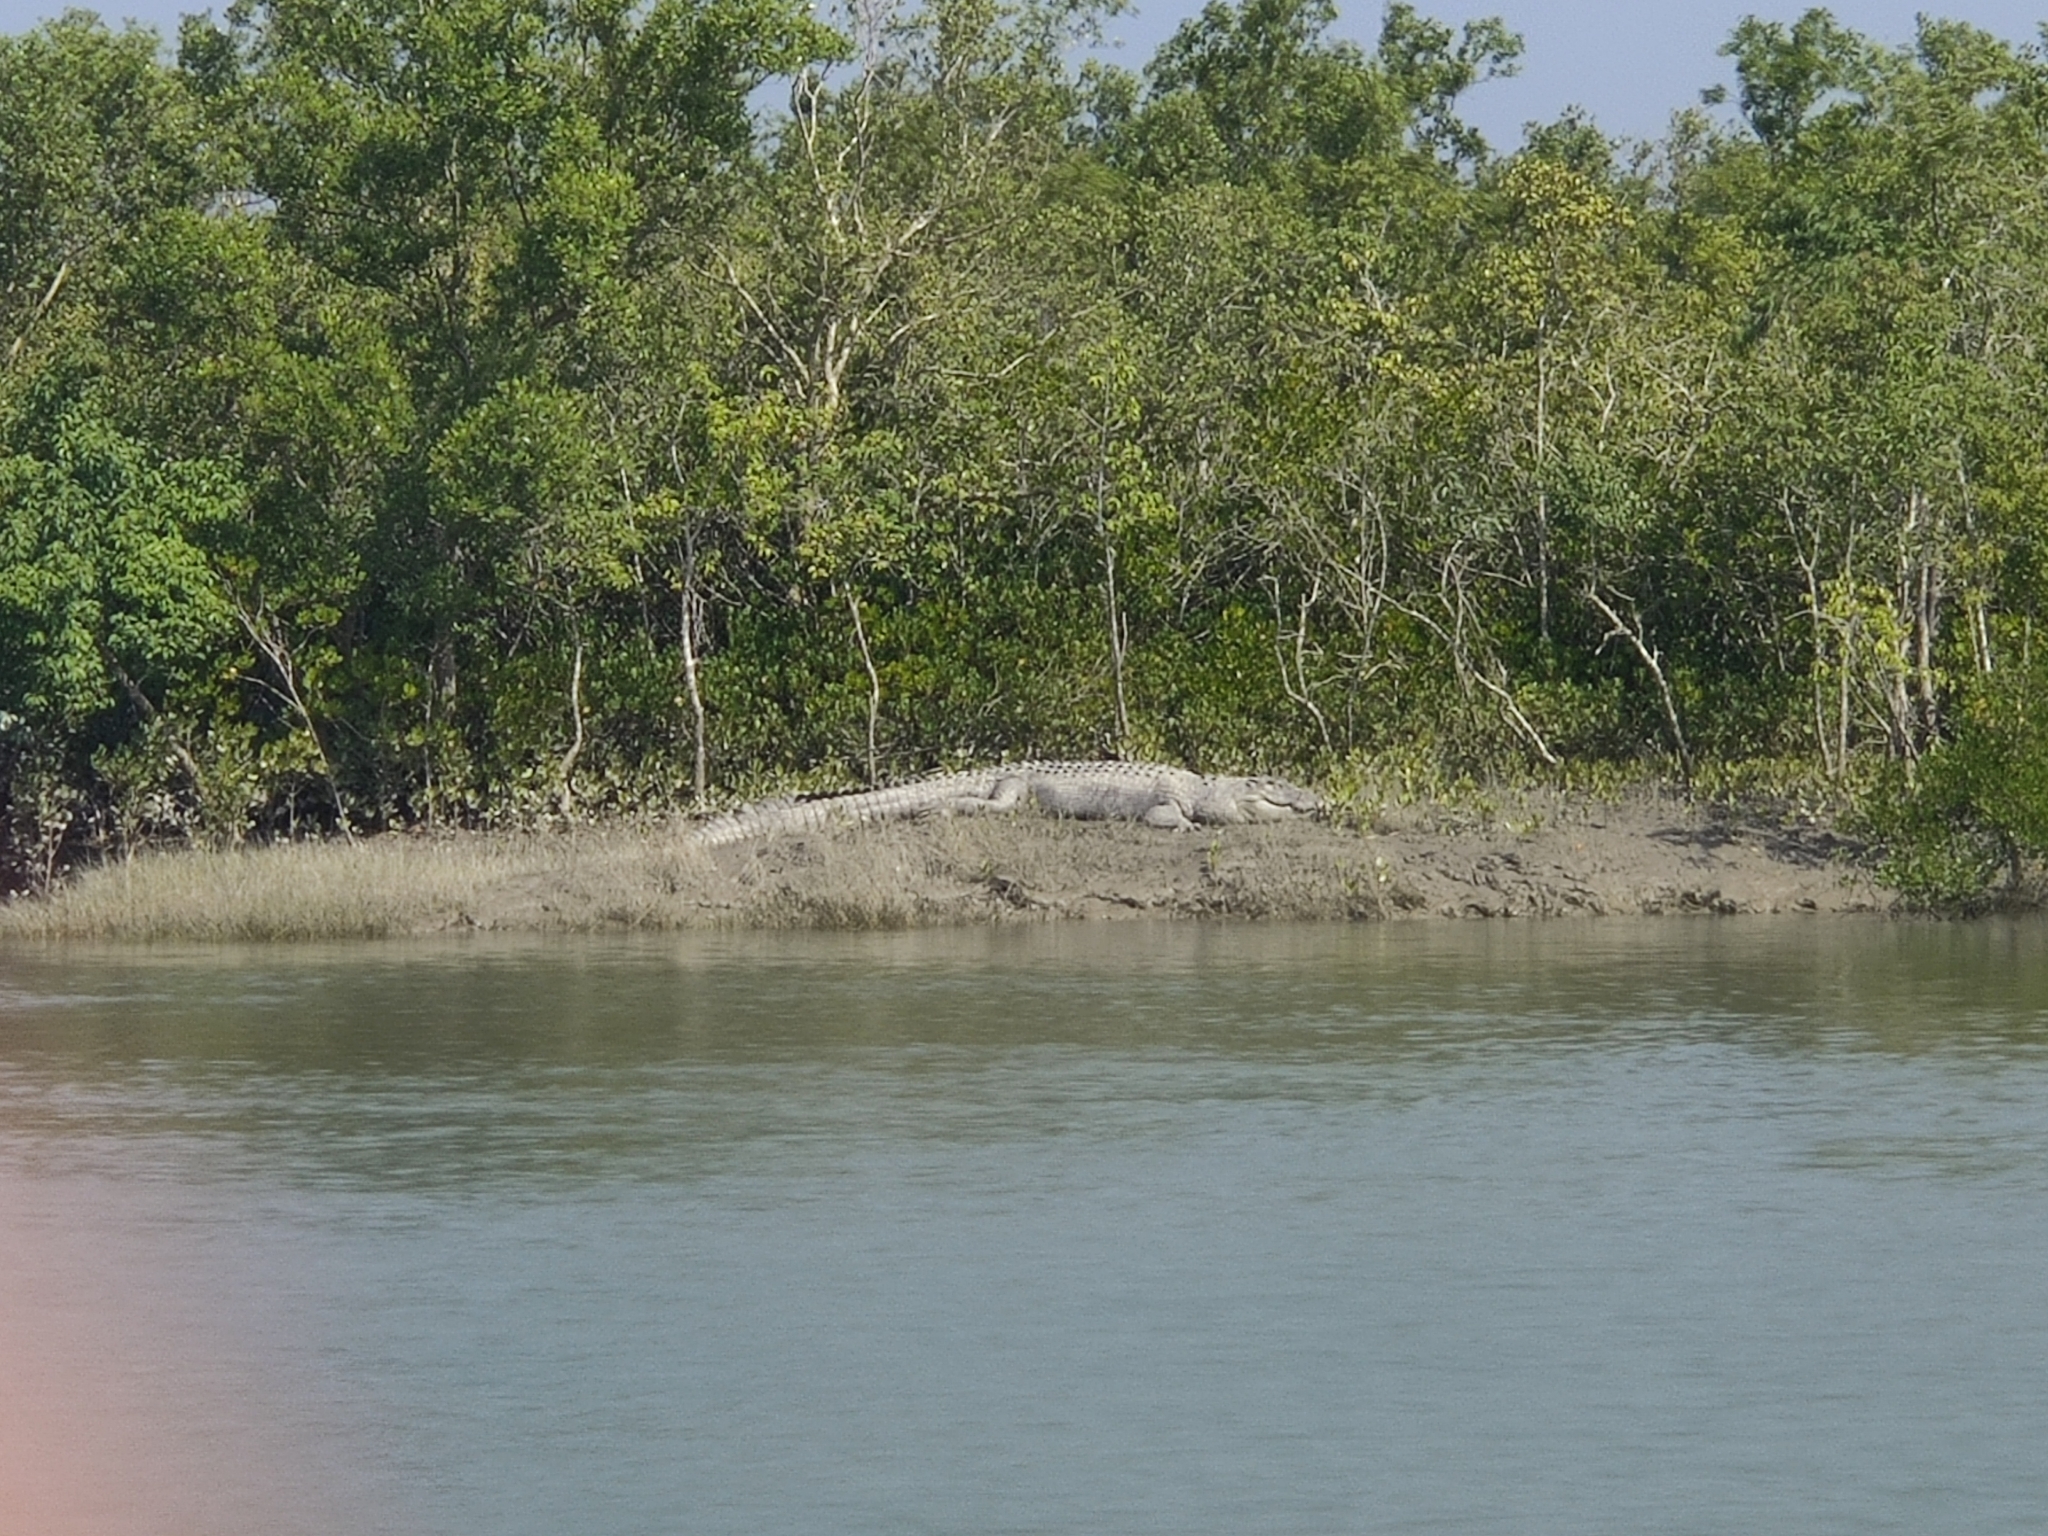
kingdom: Animalia
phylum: Chordata
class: Crocodylia
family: Crocodylidae
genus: Crocodylus
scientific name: Crocodylus porosus
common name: Saltwater crocodile
